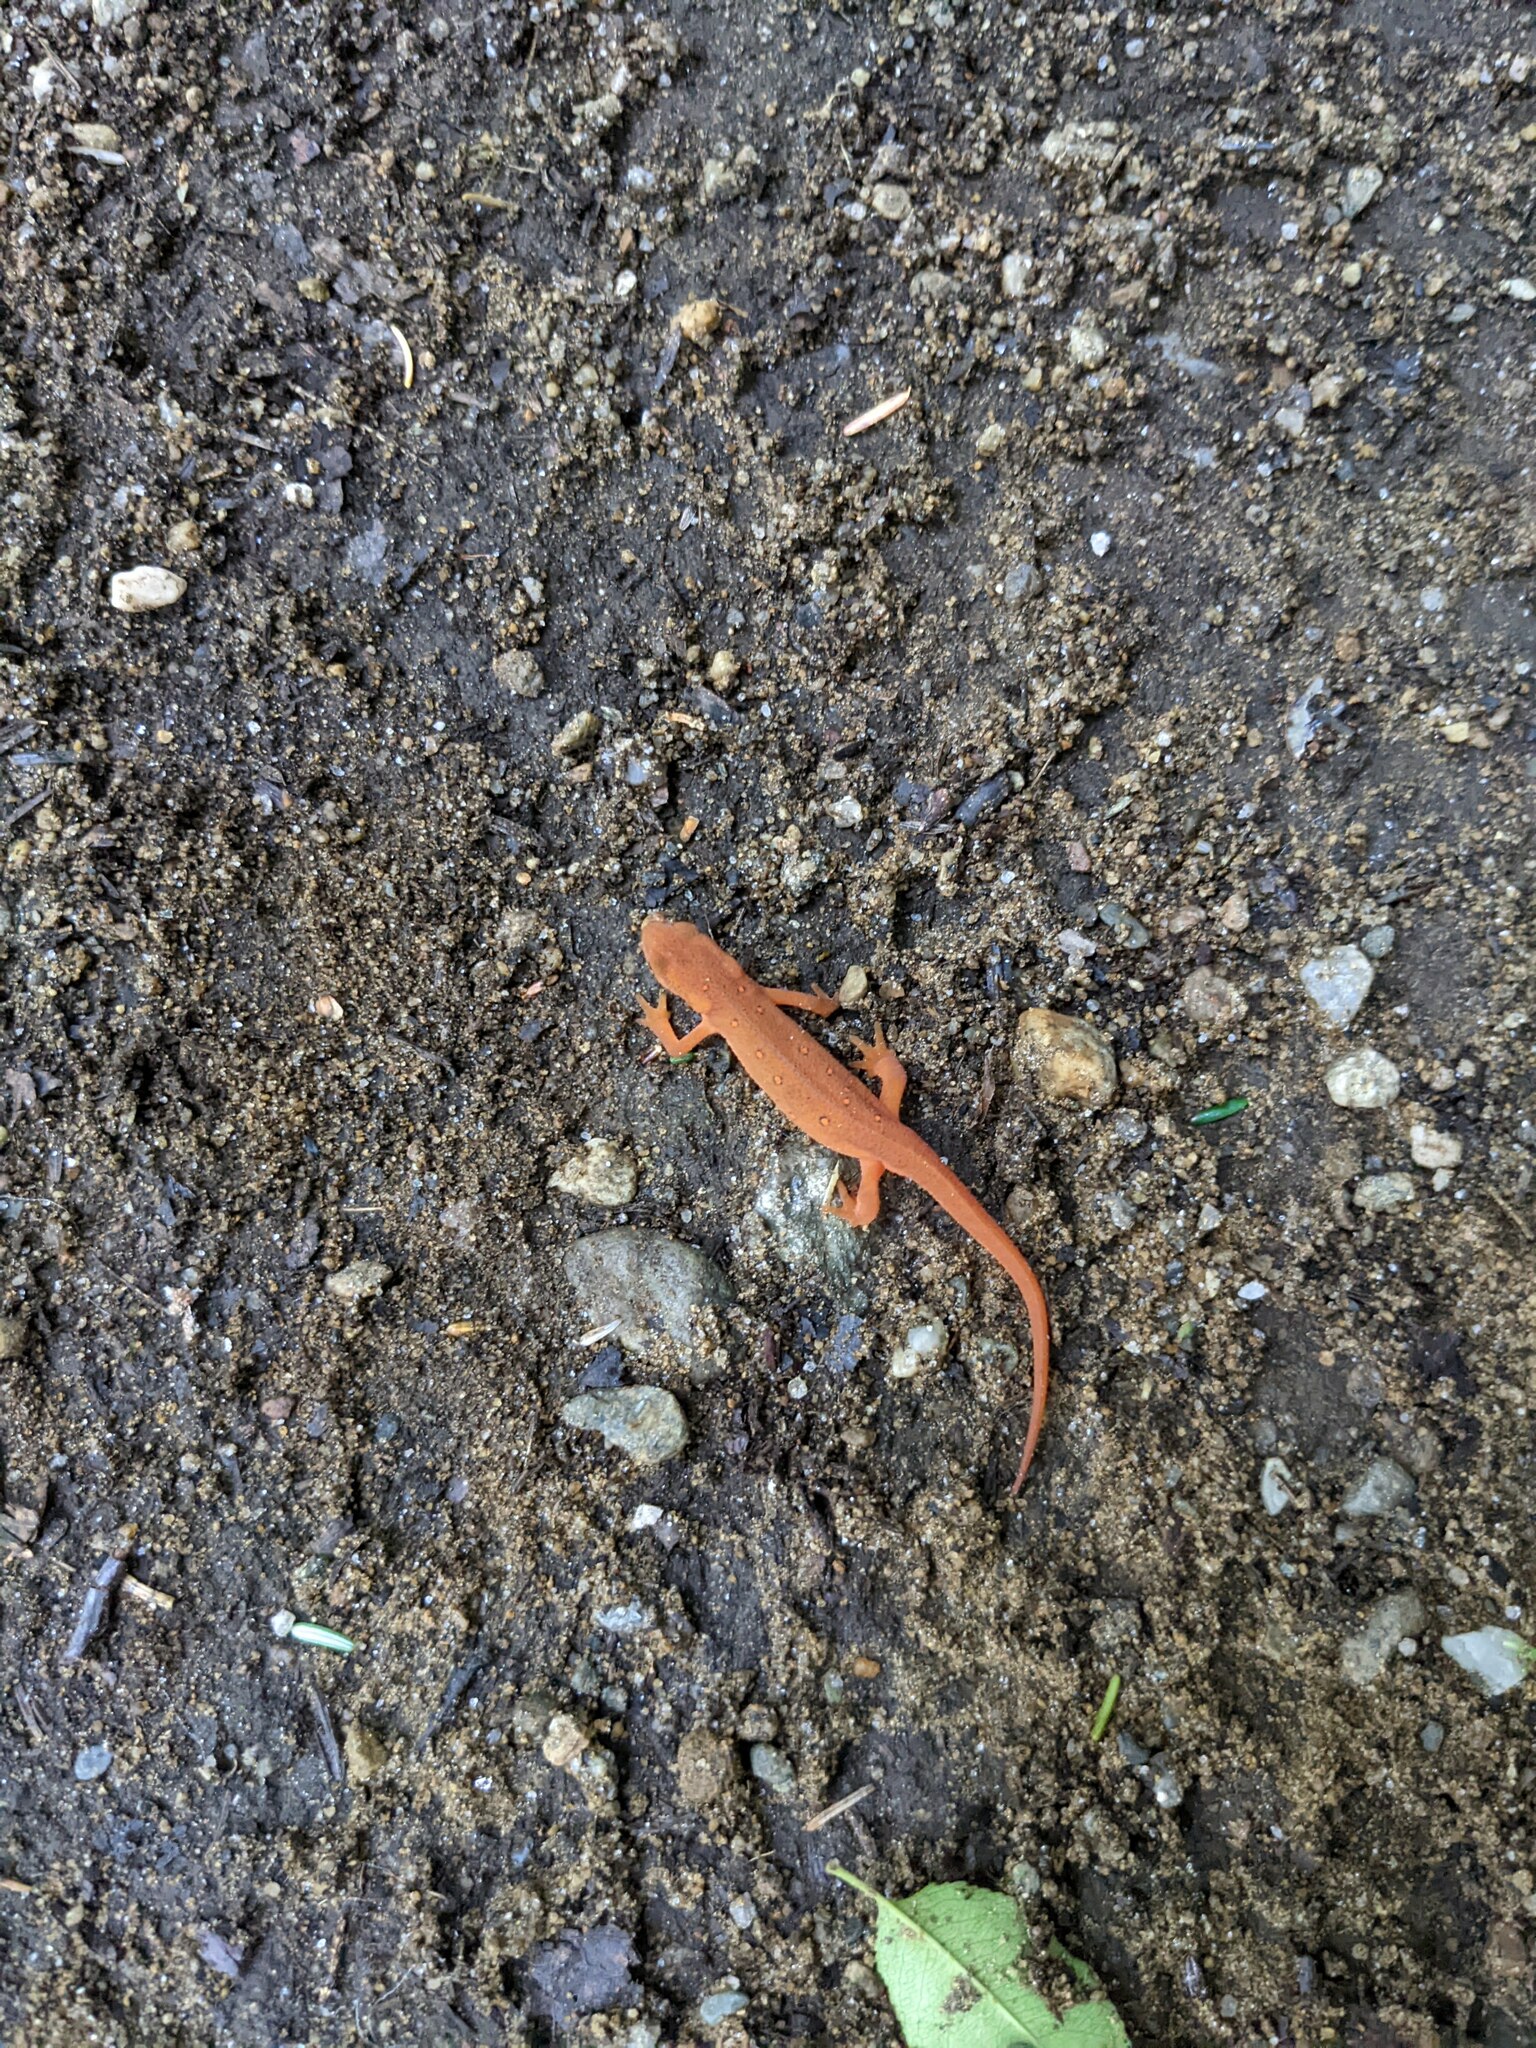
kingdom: Animalia
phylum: Chordata
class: Amphibia
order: Caudata
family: Salamandridae
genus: Notophthalmus
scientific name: Notophthalmus viridescens
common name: Eastern newt
